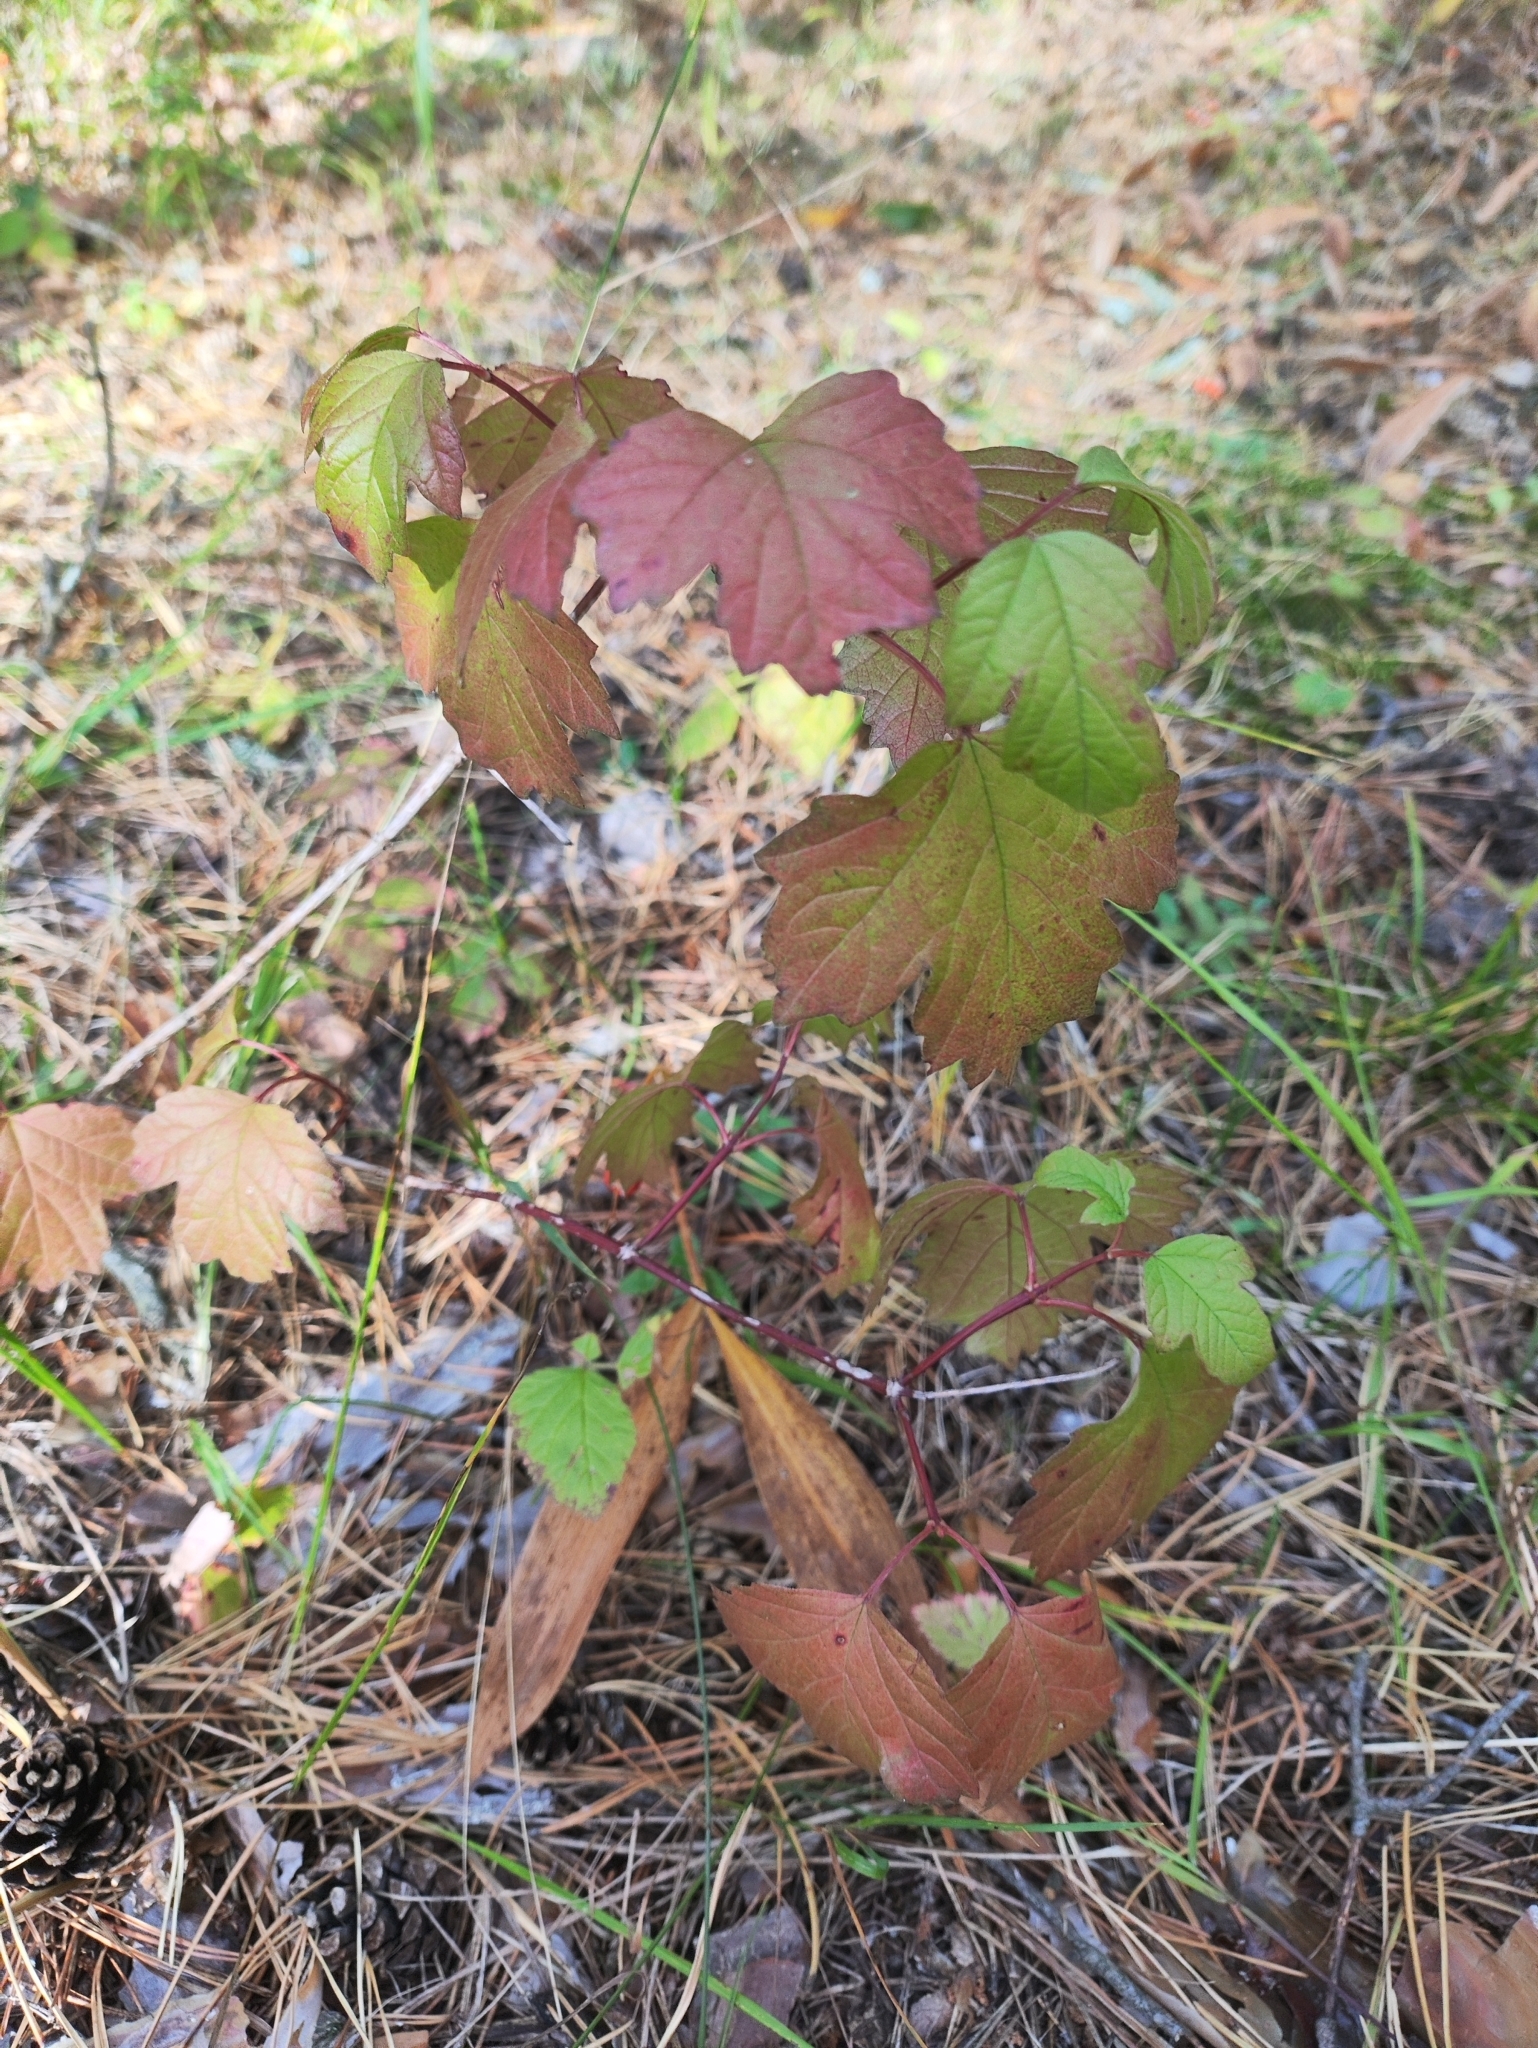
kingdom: Plantae
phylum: Tracheophyta
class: Magnoliopsida
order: Dipsacales
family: Viburnaceae
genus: Viburnum
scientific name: Viburnum opulus
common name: Guelder-rose
